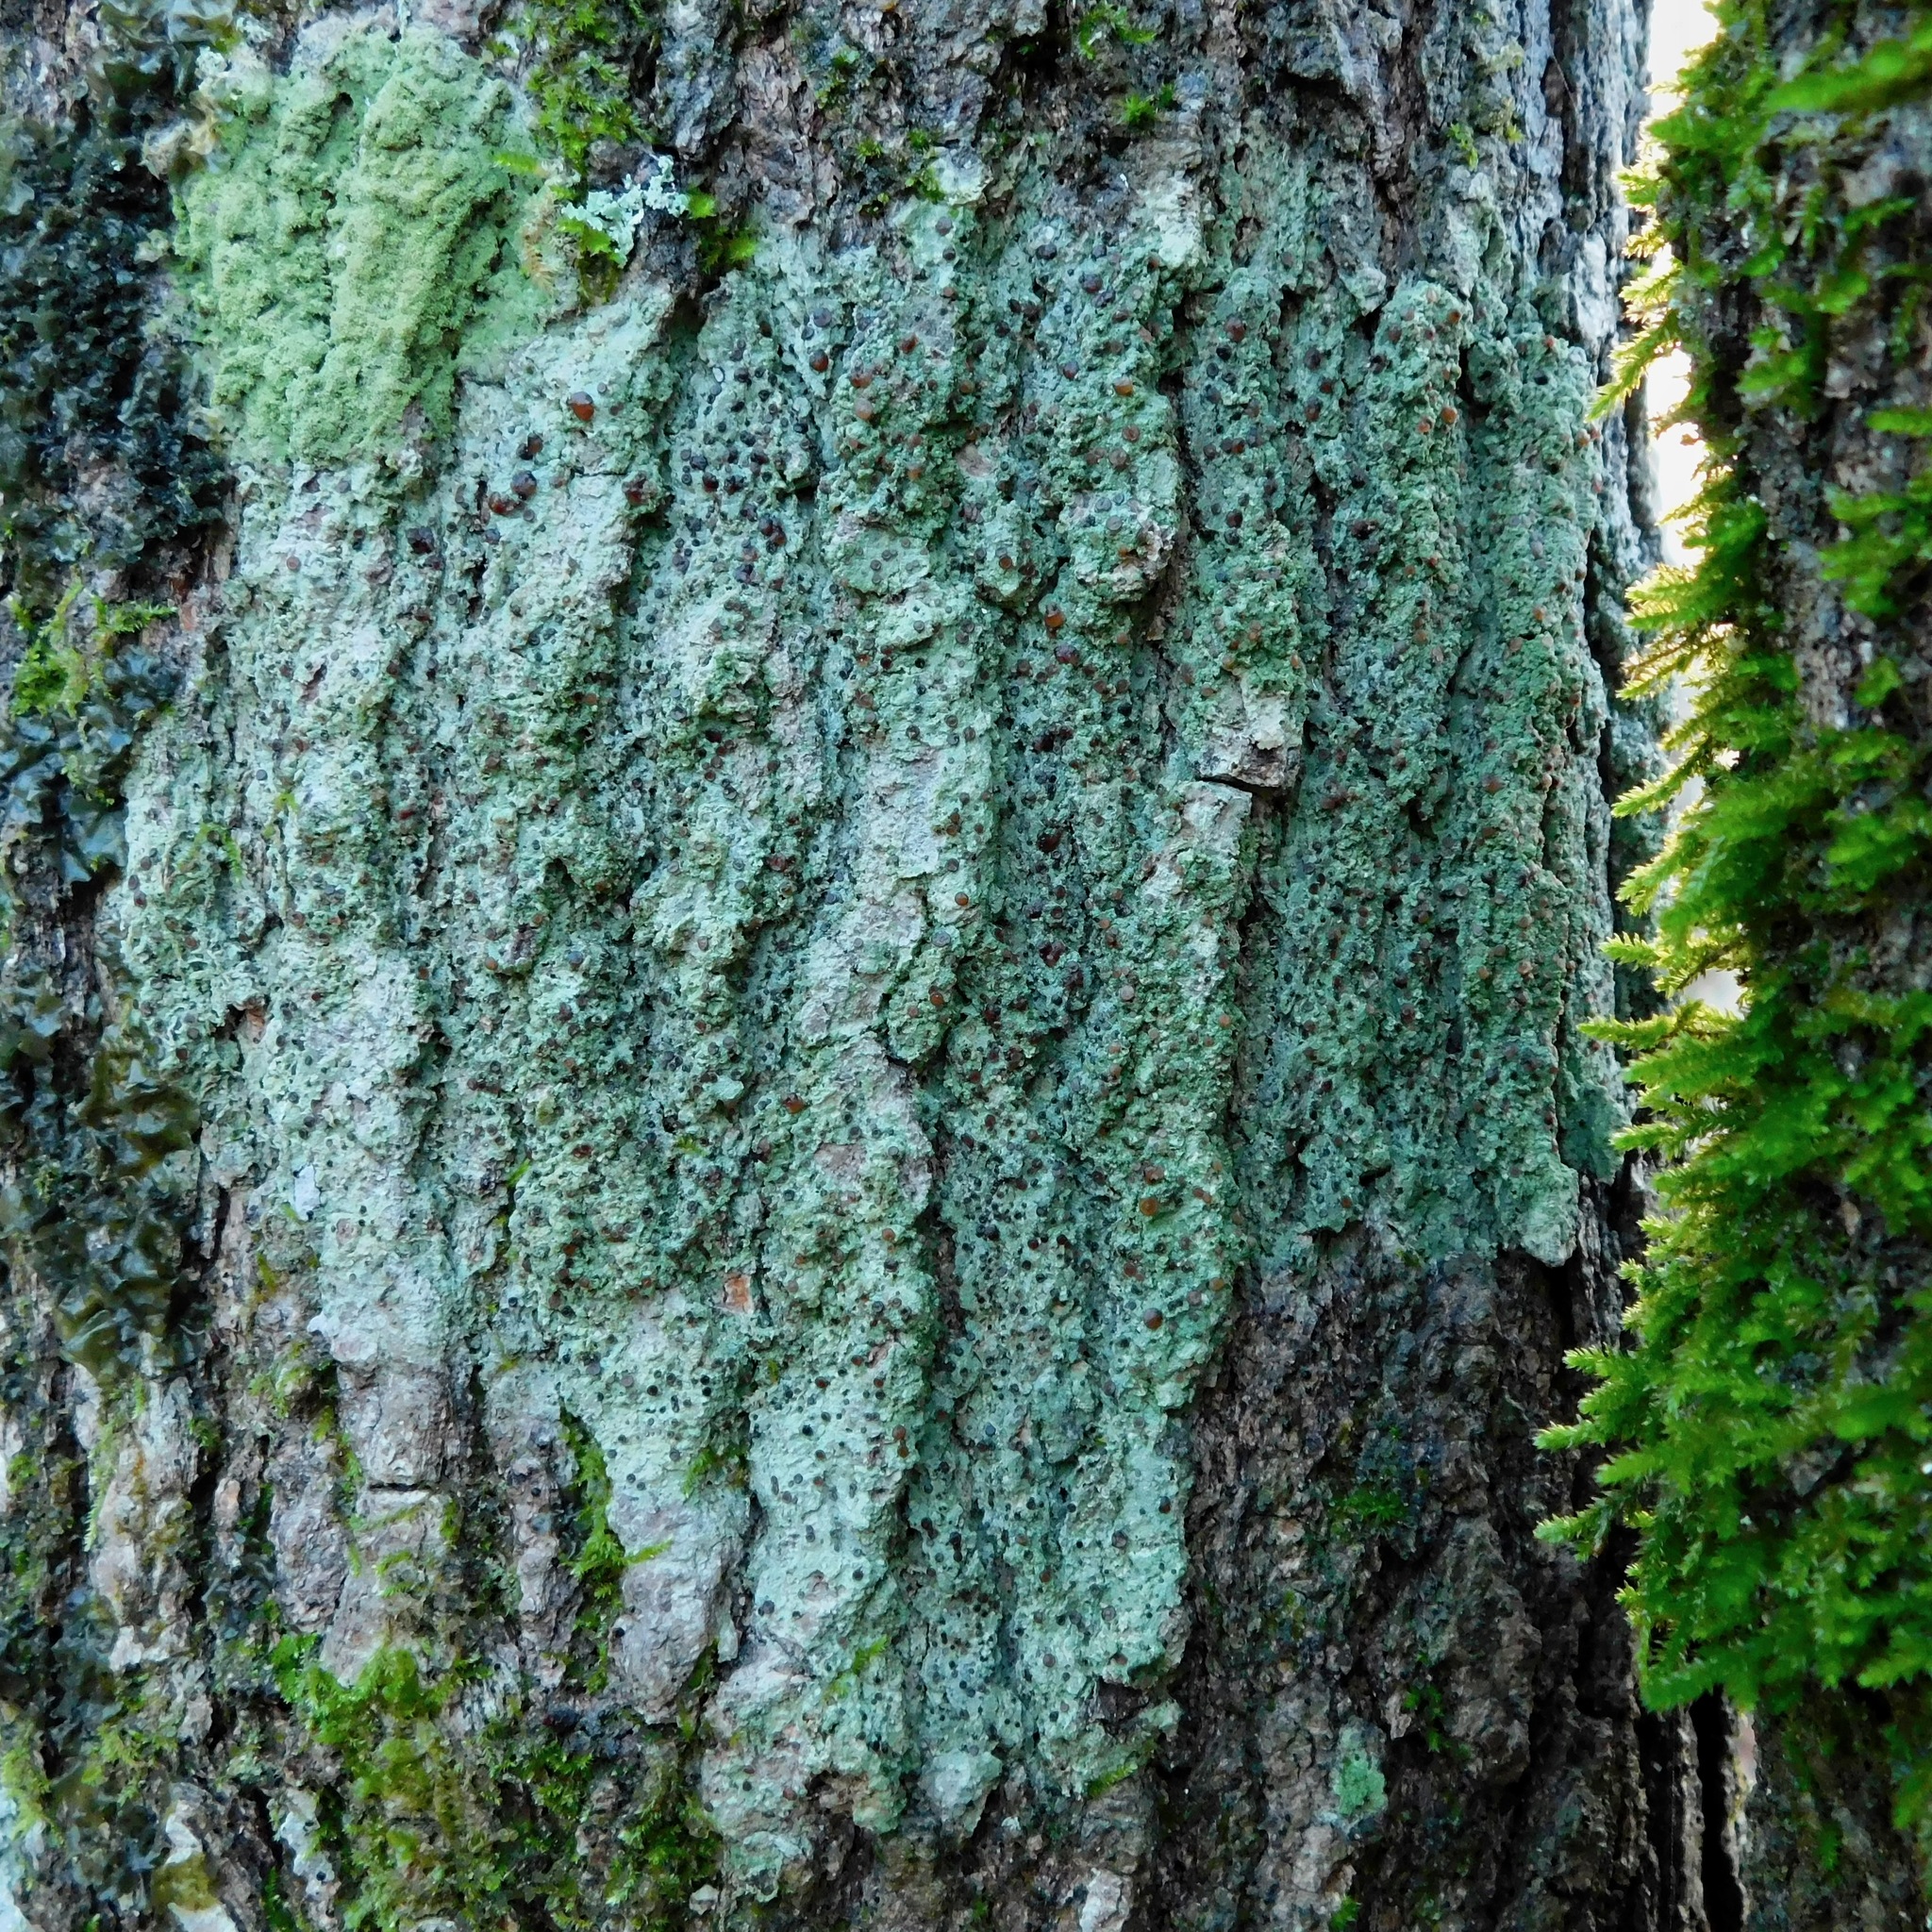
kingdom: Fungi
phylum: Ascomycota
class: Lecanoromycetes
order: Lecanorales
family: Ramalinaceae
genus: Bacidina
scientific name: Bacidina inundata
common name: Wet dot lichen
